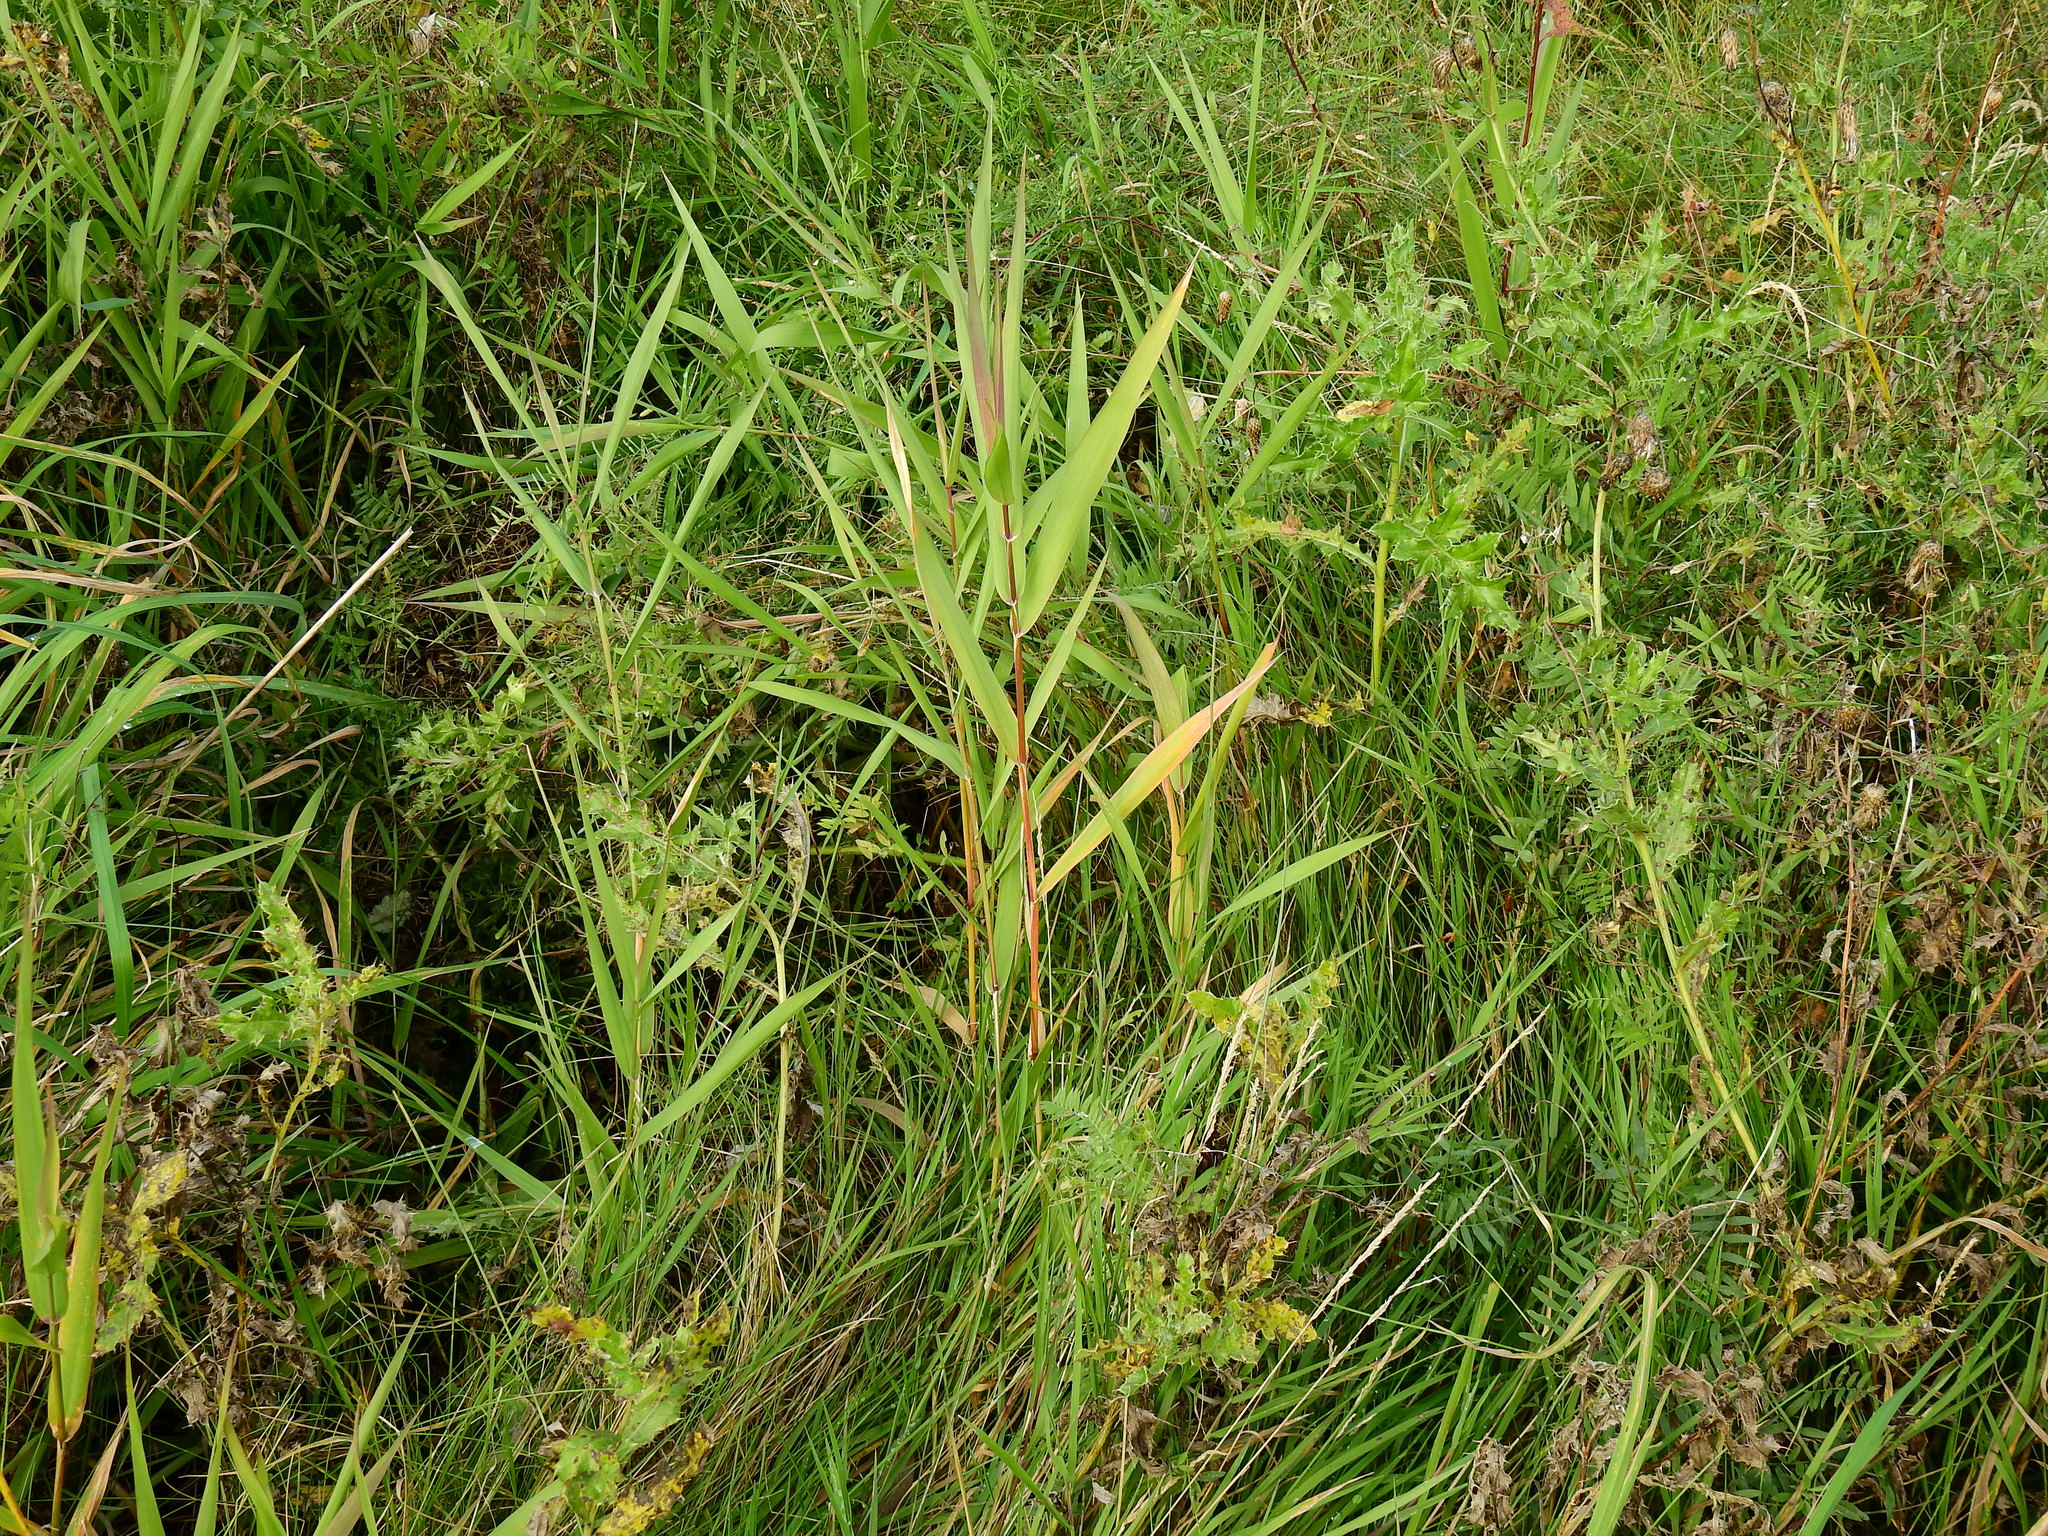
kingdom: Plantae
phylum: Tracheophyta
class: Liliopsida
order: Poales
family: Poaceae
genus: Phalaris
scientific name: Phalaris arundinacea
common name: Reed canary-grass
